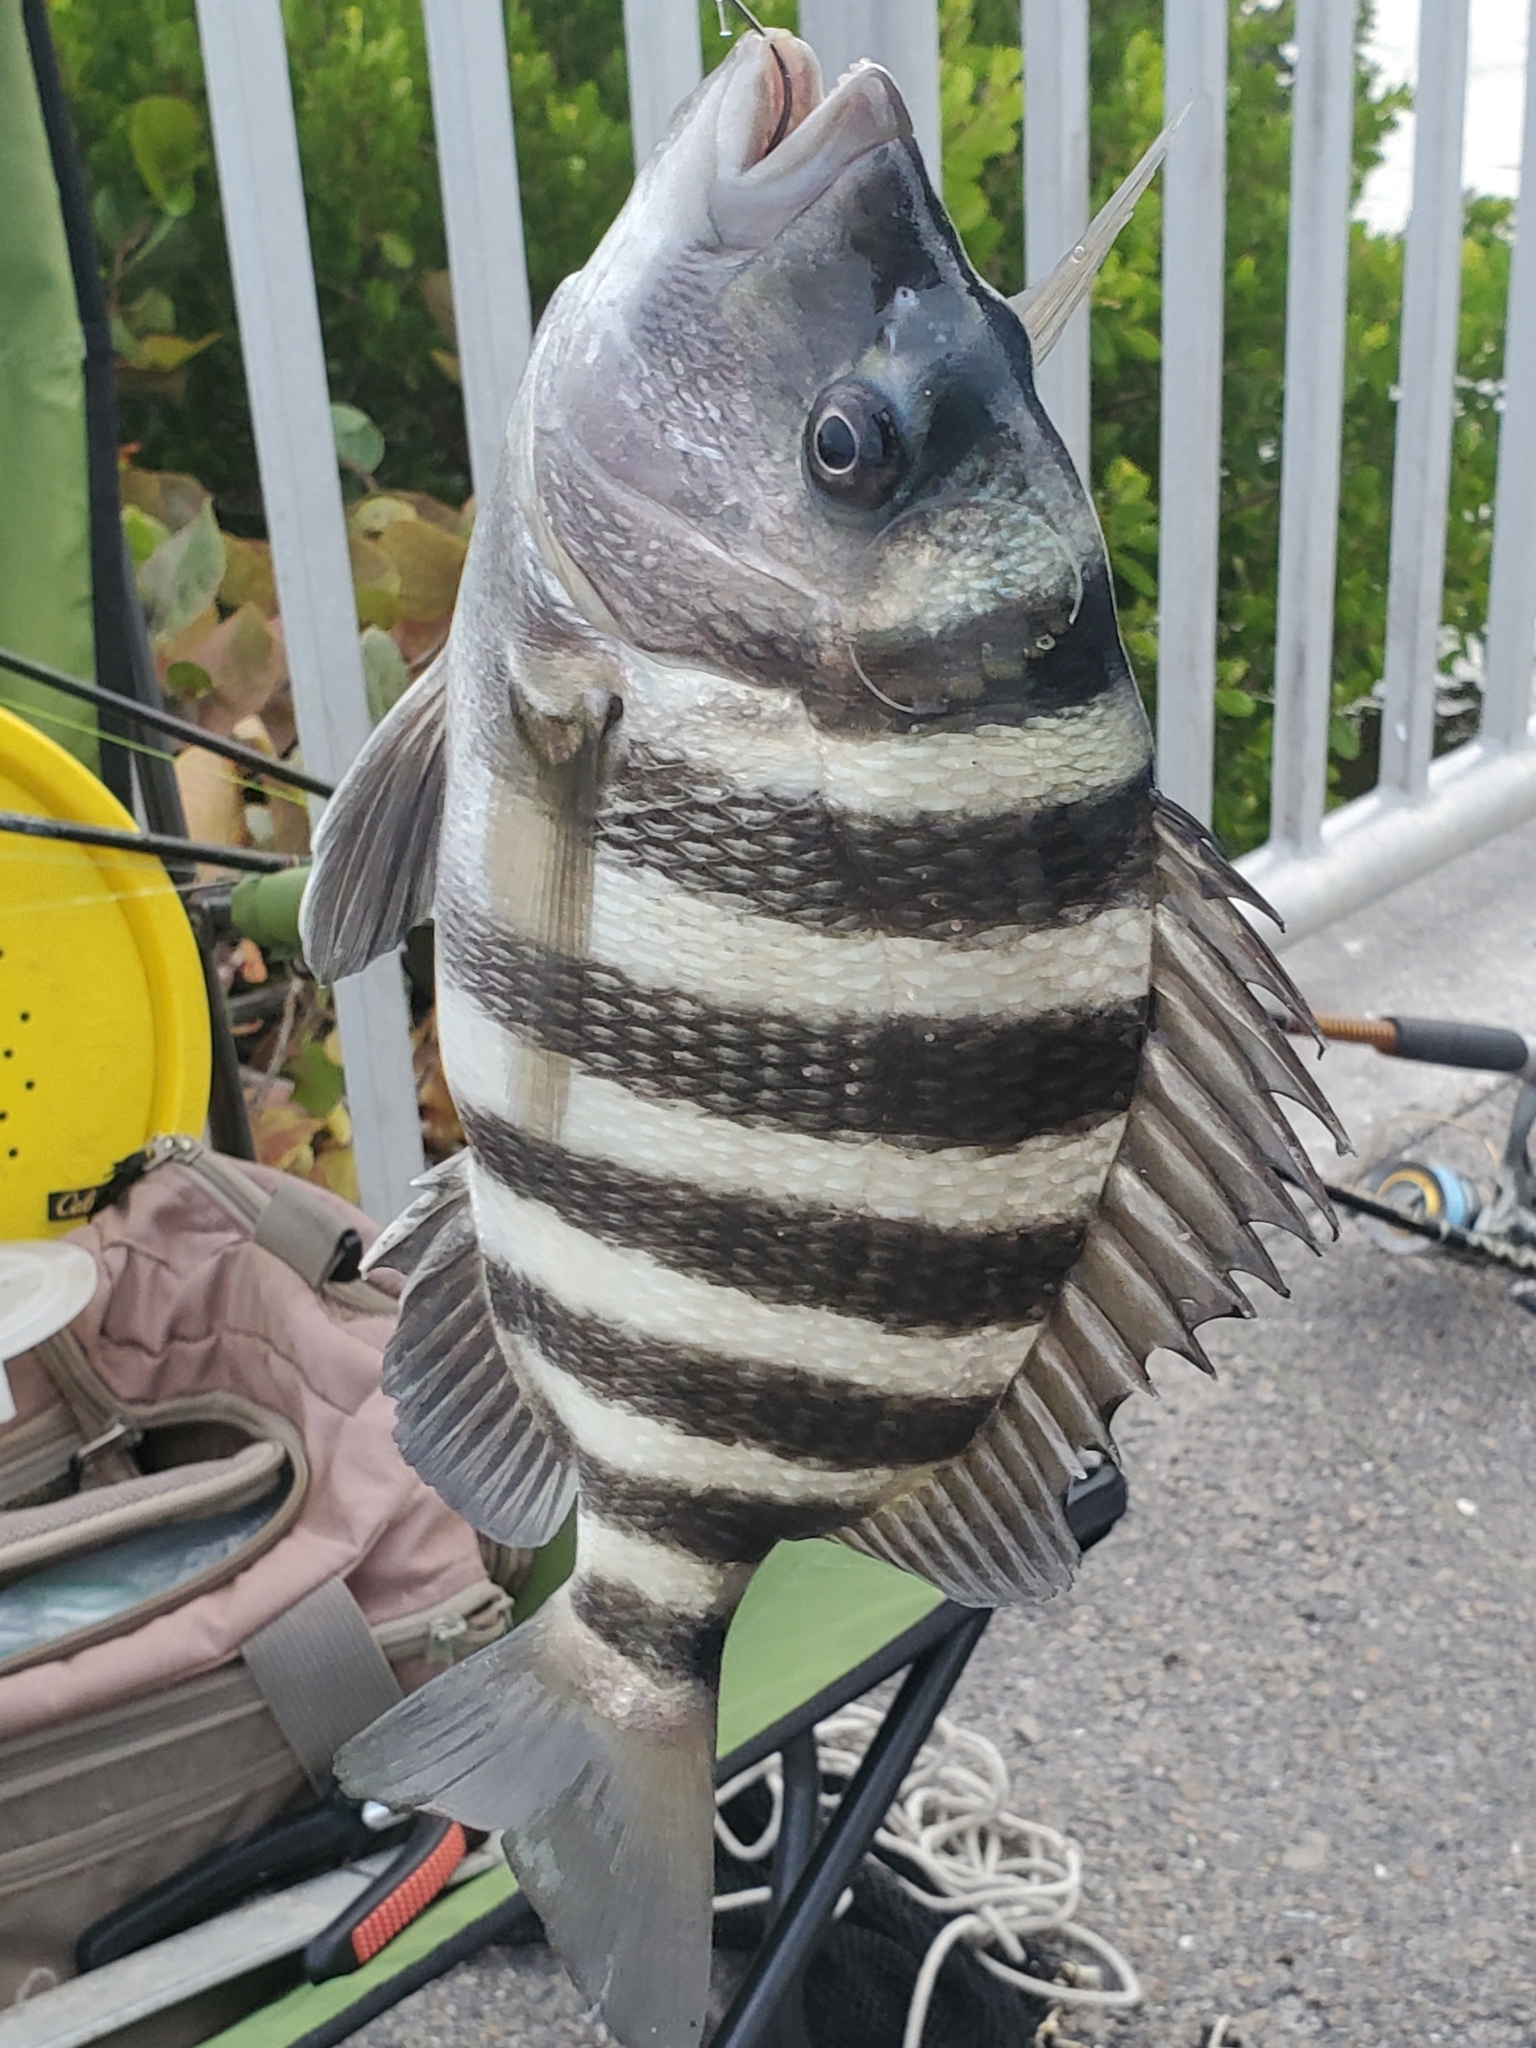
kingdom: Animalia
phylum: Chordata
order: Perciformes
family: Sparidae
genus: Archosargus
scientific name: Archosargus probatocephalus
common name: Sheepshead
